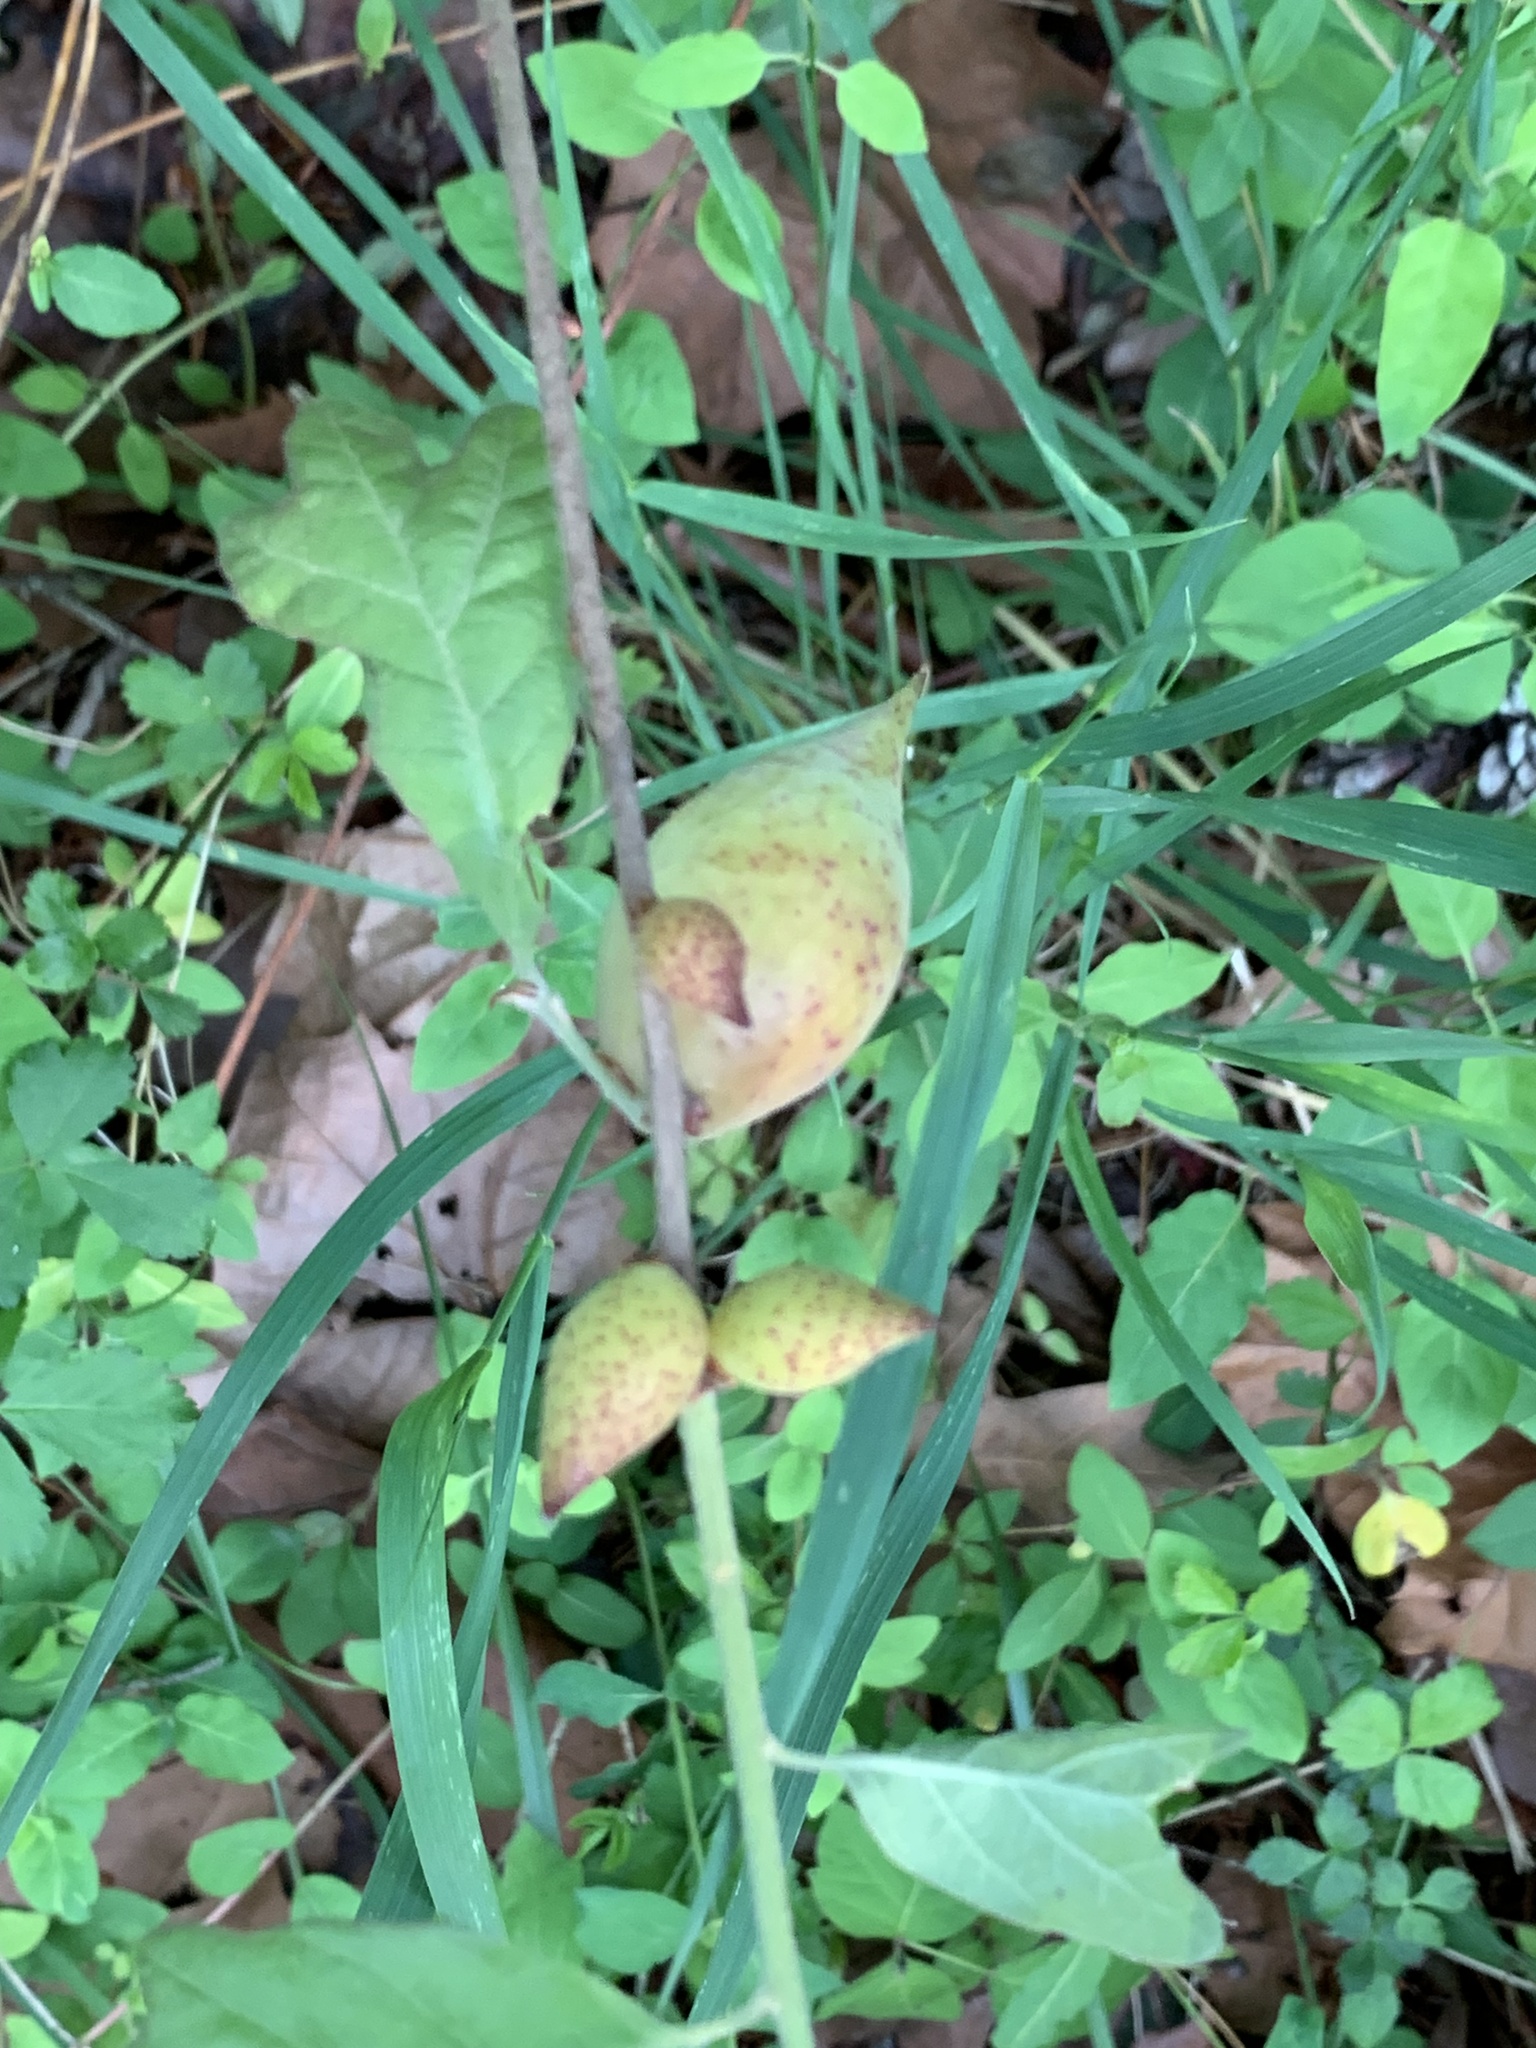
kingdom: Animalia
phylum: Arthropoda
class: Insecta
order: Hymenoptera
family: Cynipidae
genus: Amphibolips
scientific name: Amphibolips
